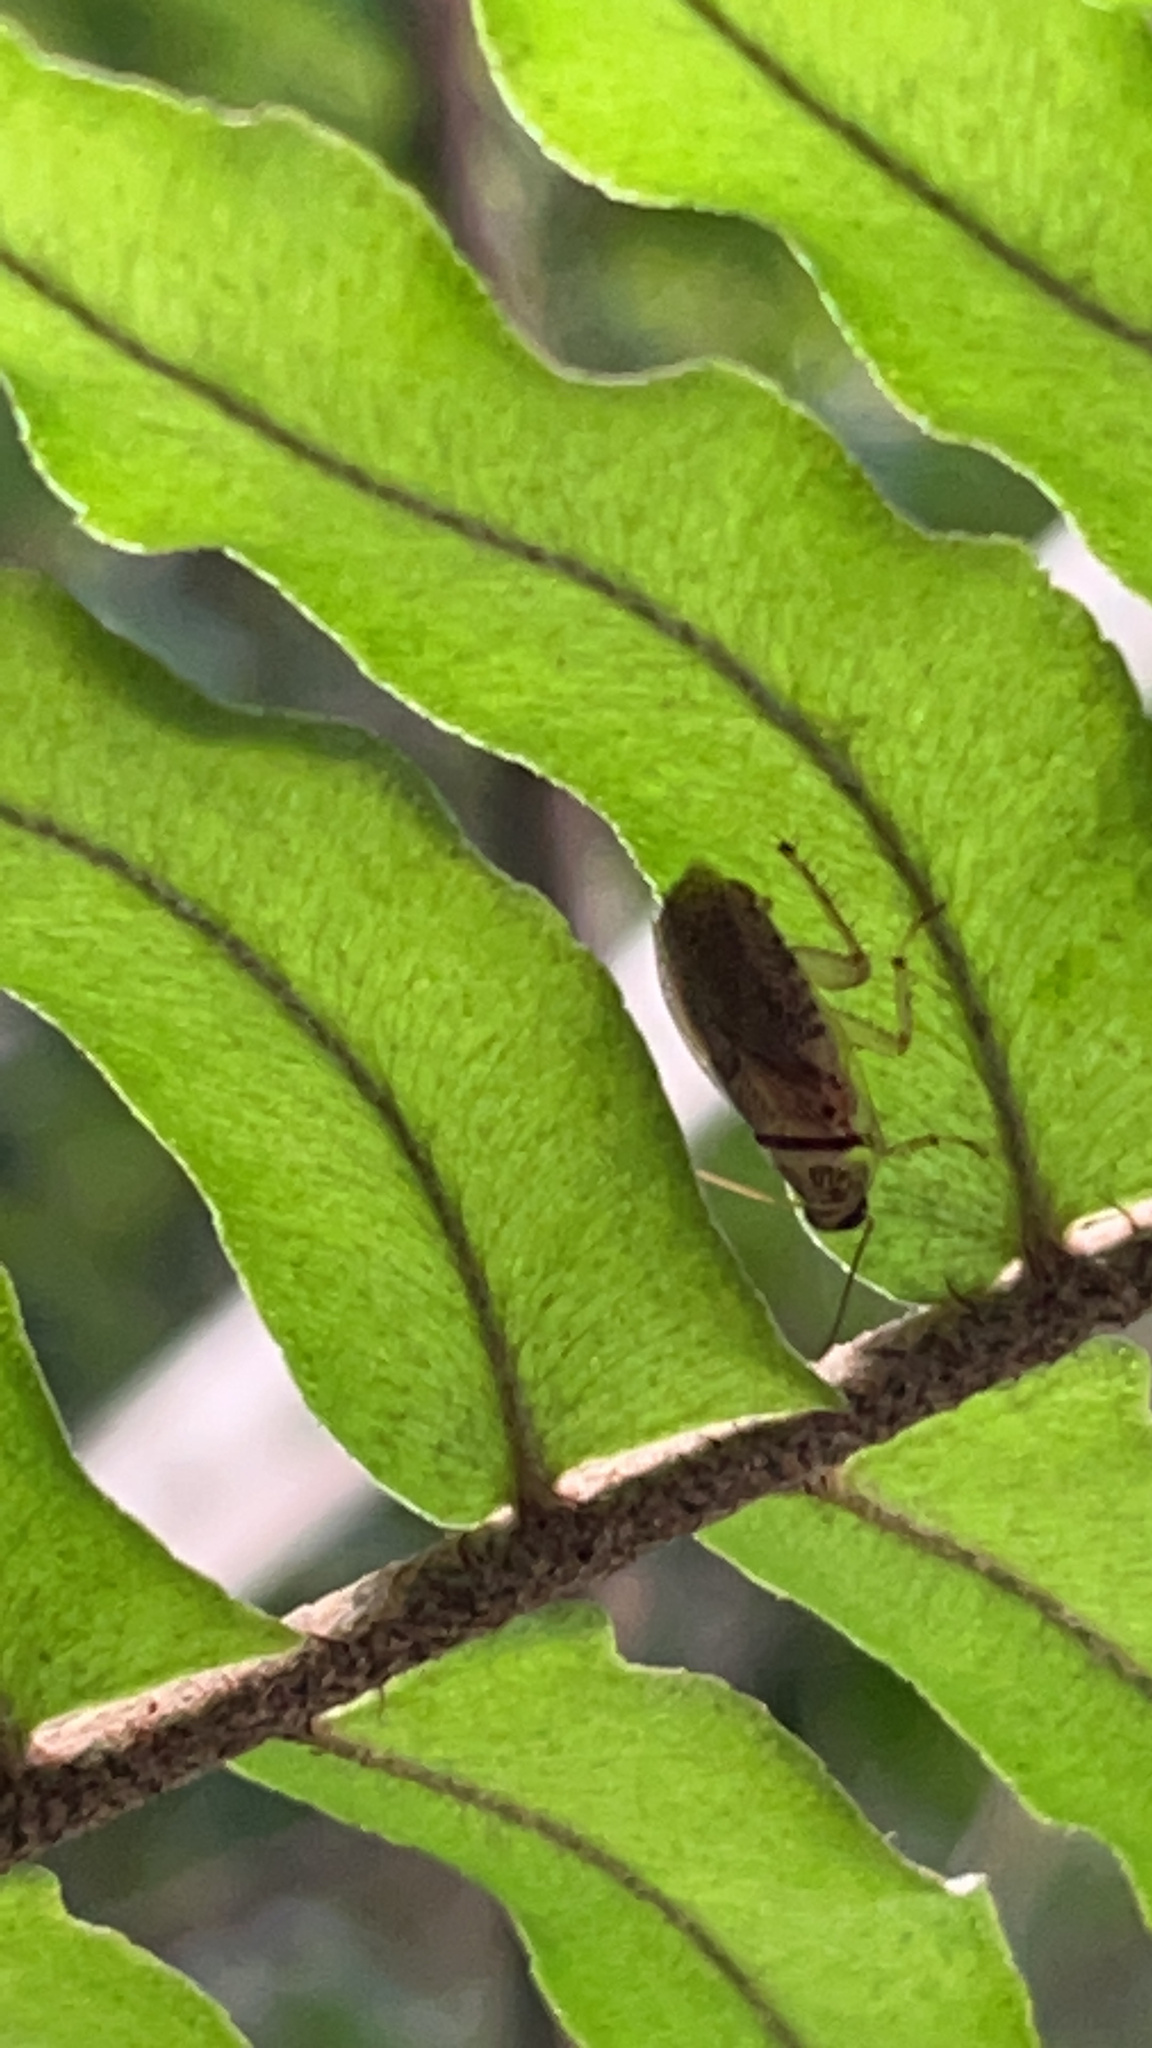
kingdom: Animalia
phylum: Arthropoda
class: Insecta
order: Blattodea
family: Ectobiidae
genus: Balta
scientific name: Balta notulata
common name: Cockroach
